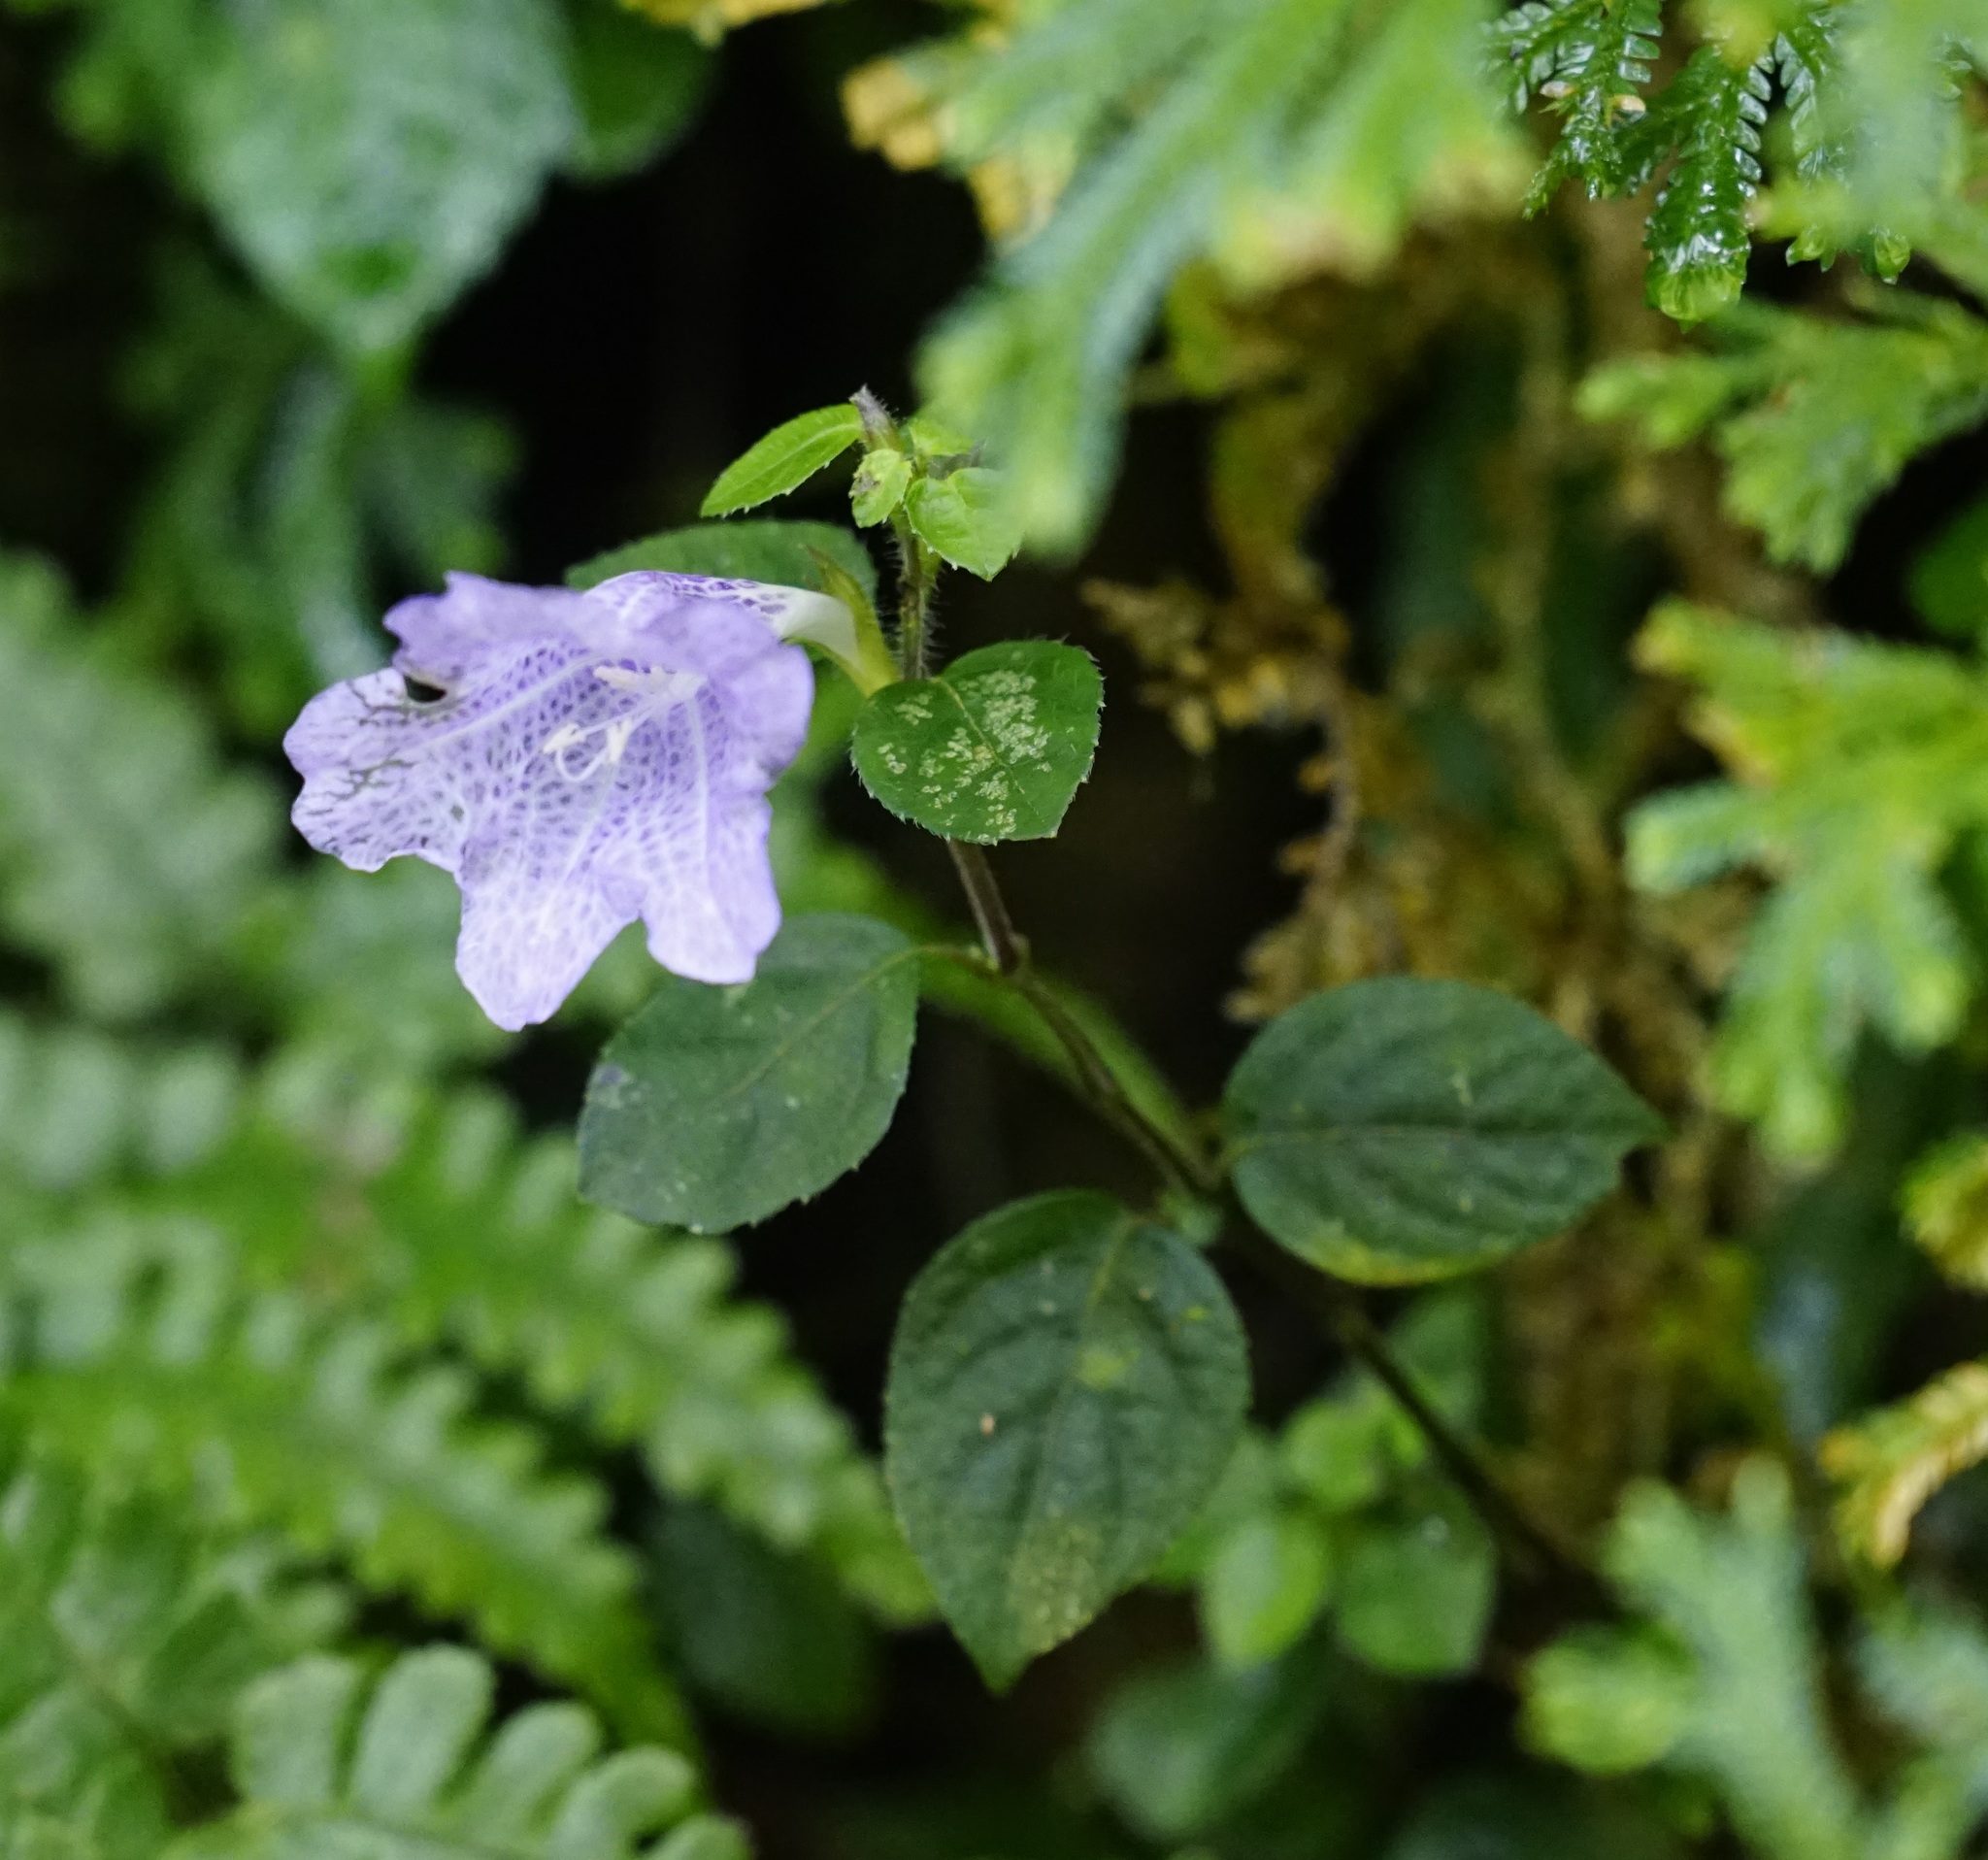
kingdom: Plantae
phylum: Tracheophyta
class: Magnoliopsida
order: Lamiales
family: Acanthaceae
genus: Strobilanthes
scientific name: Strobilanthes rankanensis
